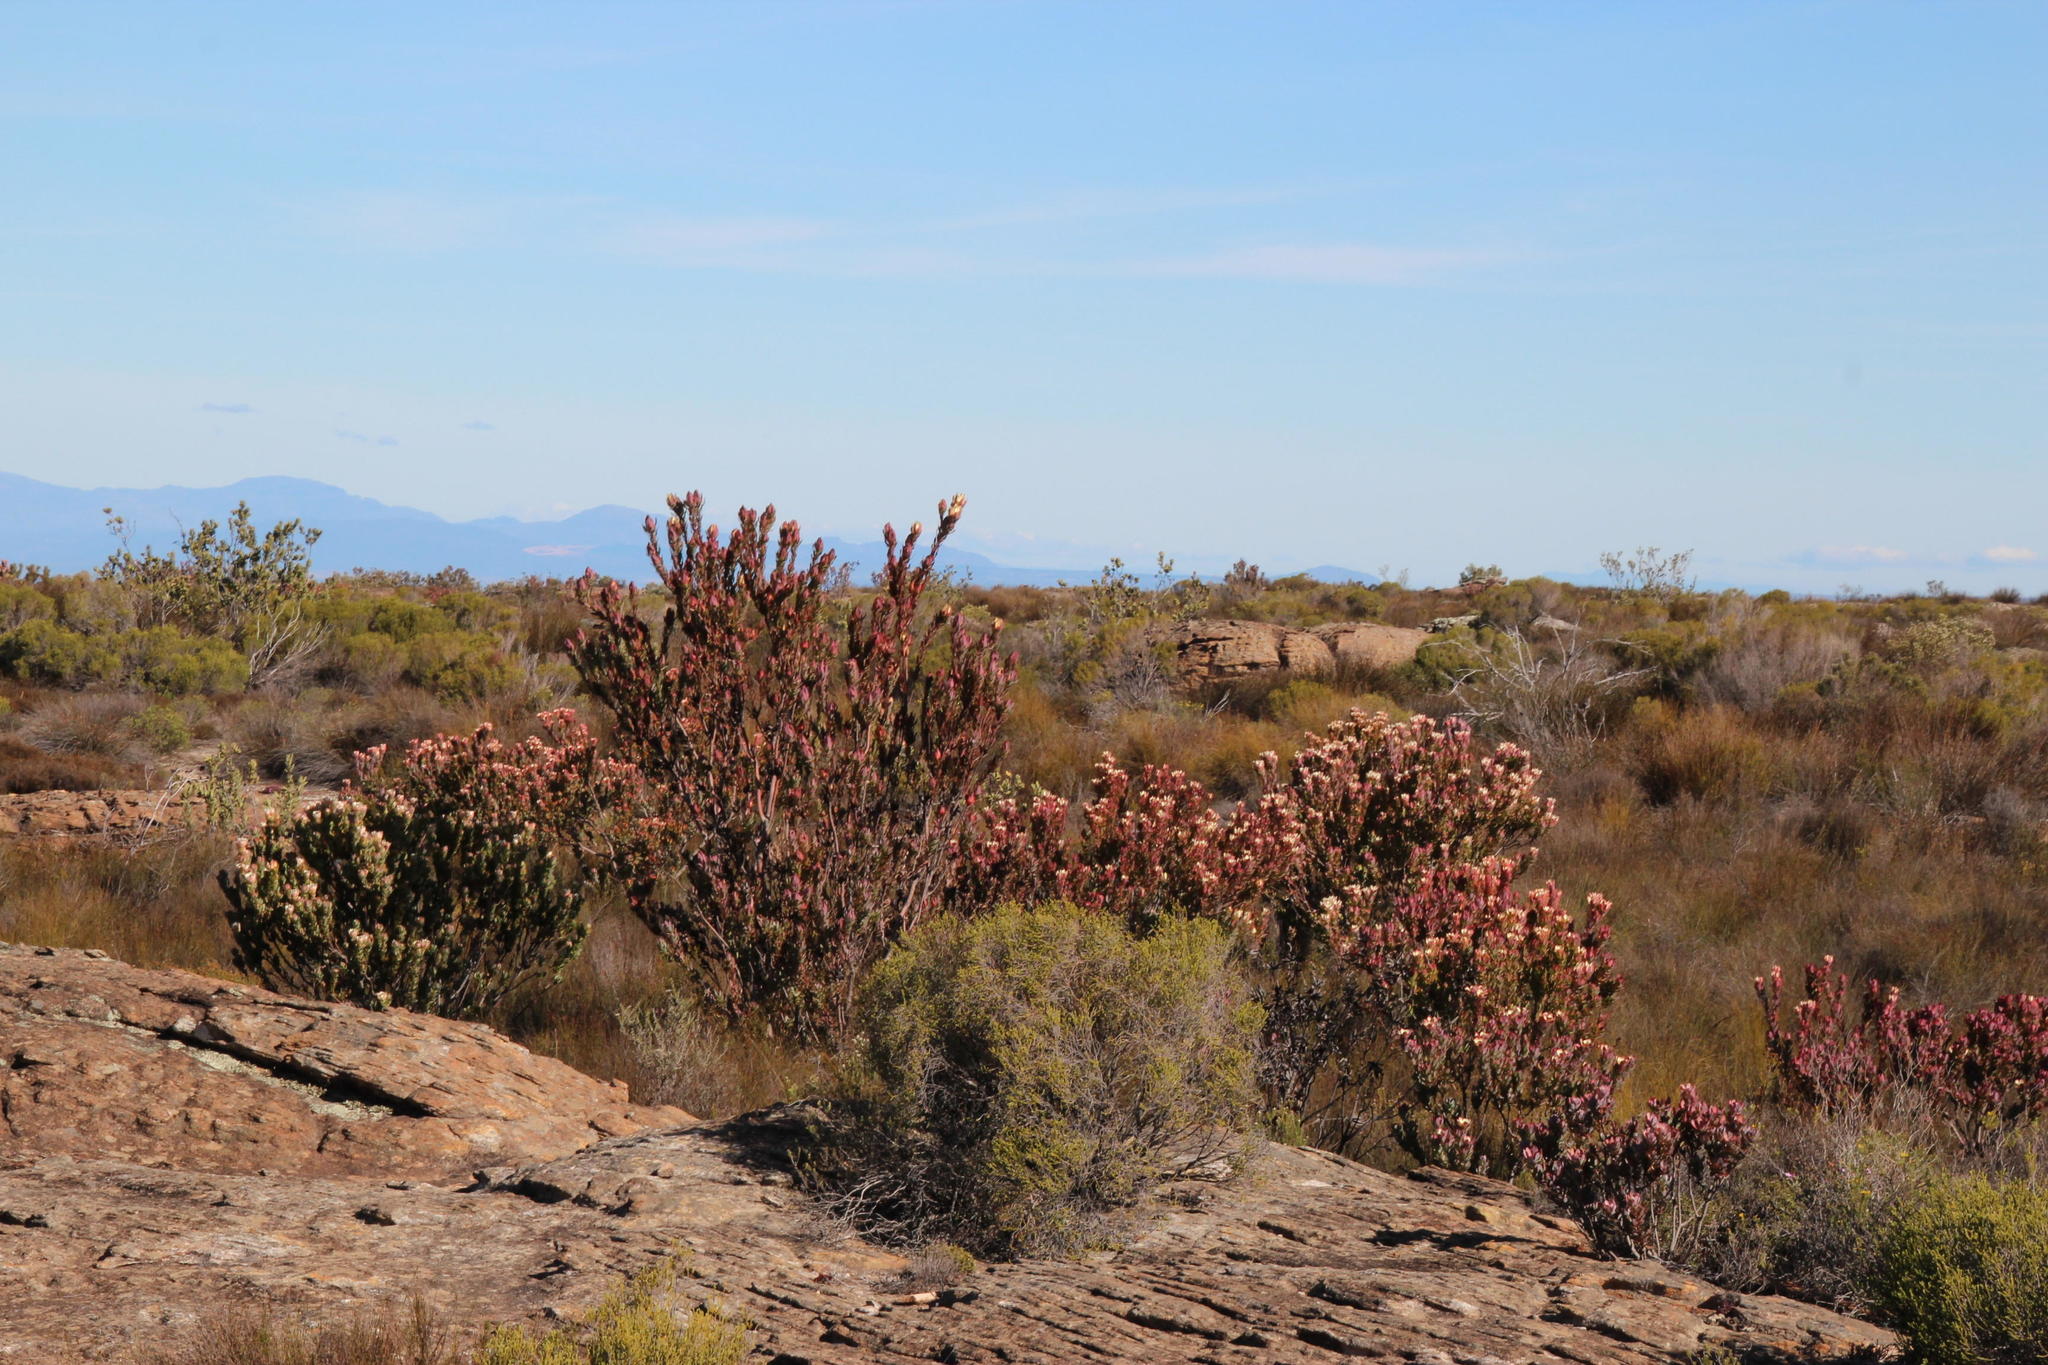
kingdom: Plantae
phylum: Tracheophyta
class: Magnoliopsida
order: Proteales
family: Proteaceae
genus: Leucadendron
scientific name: Leucadendron procerum
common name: Ivory conebush
